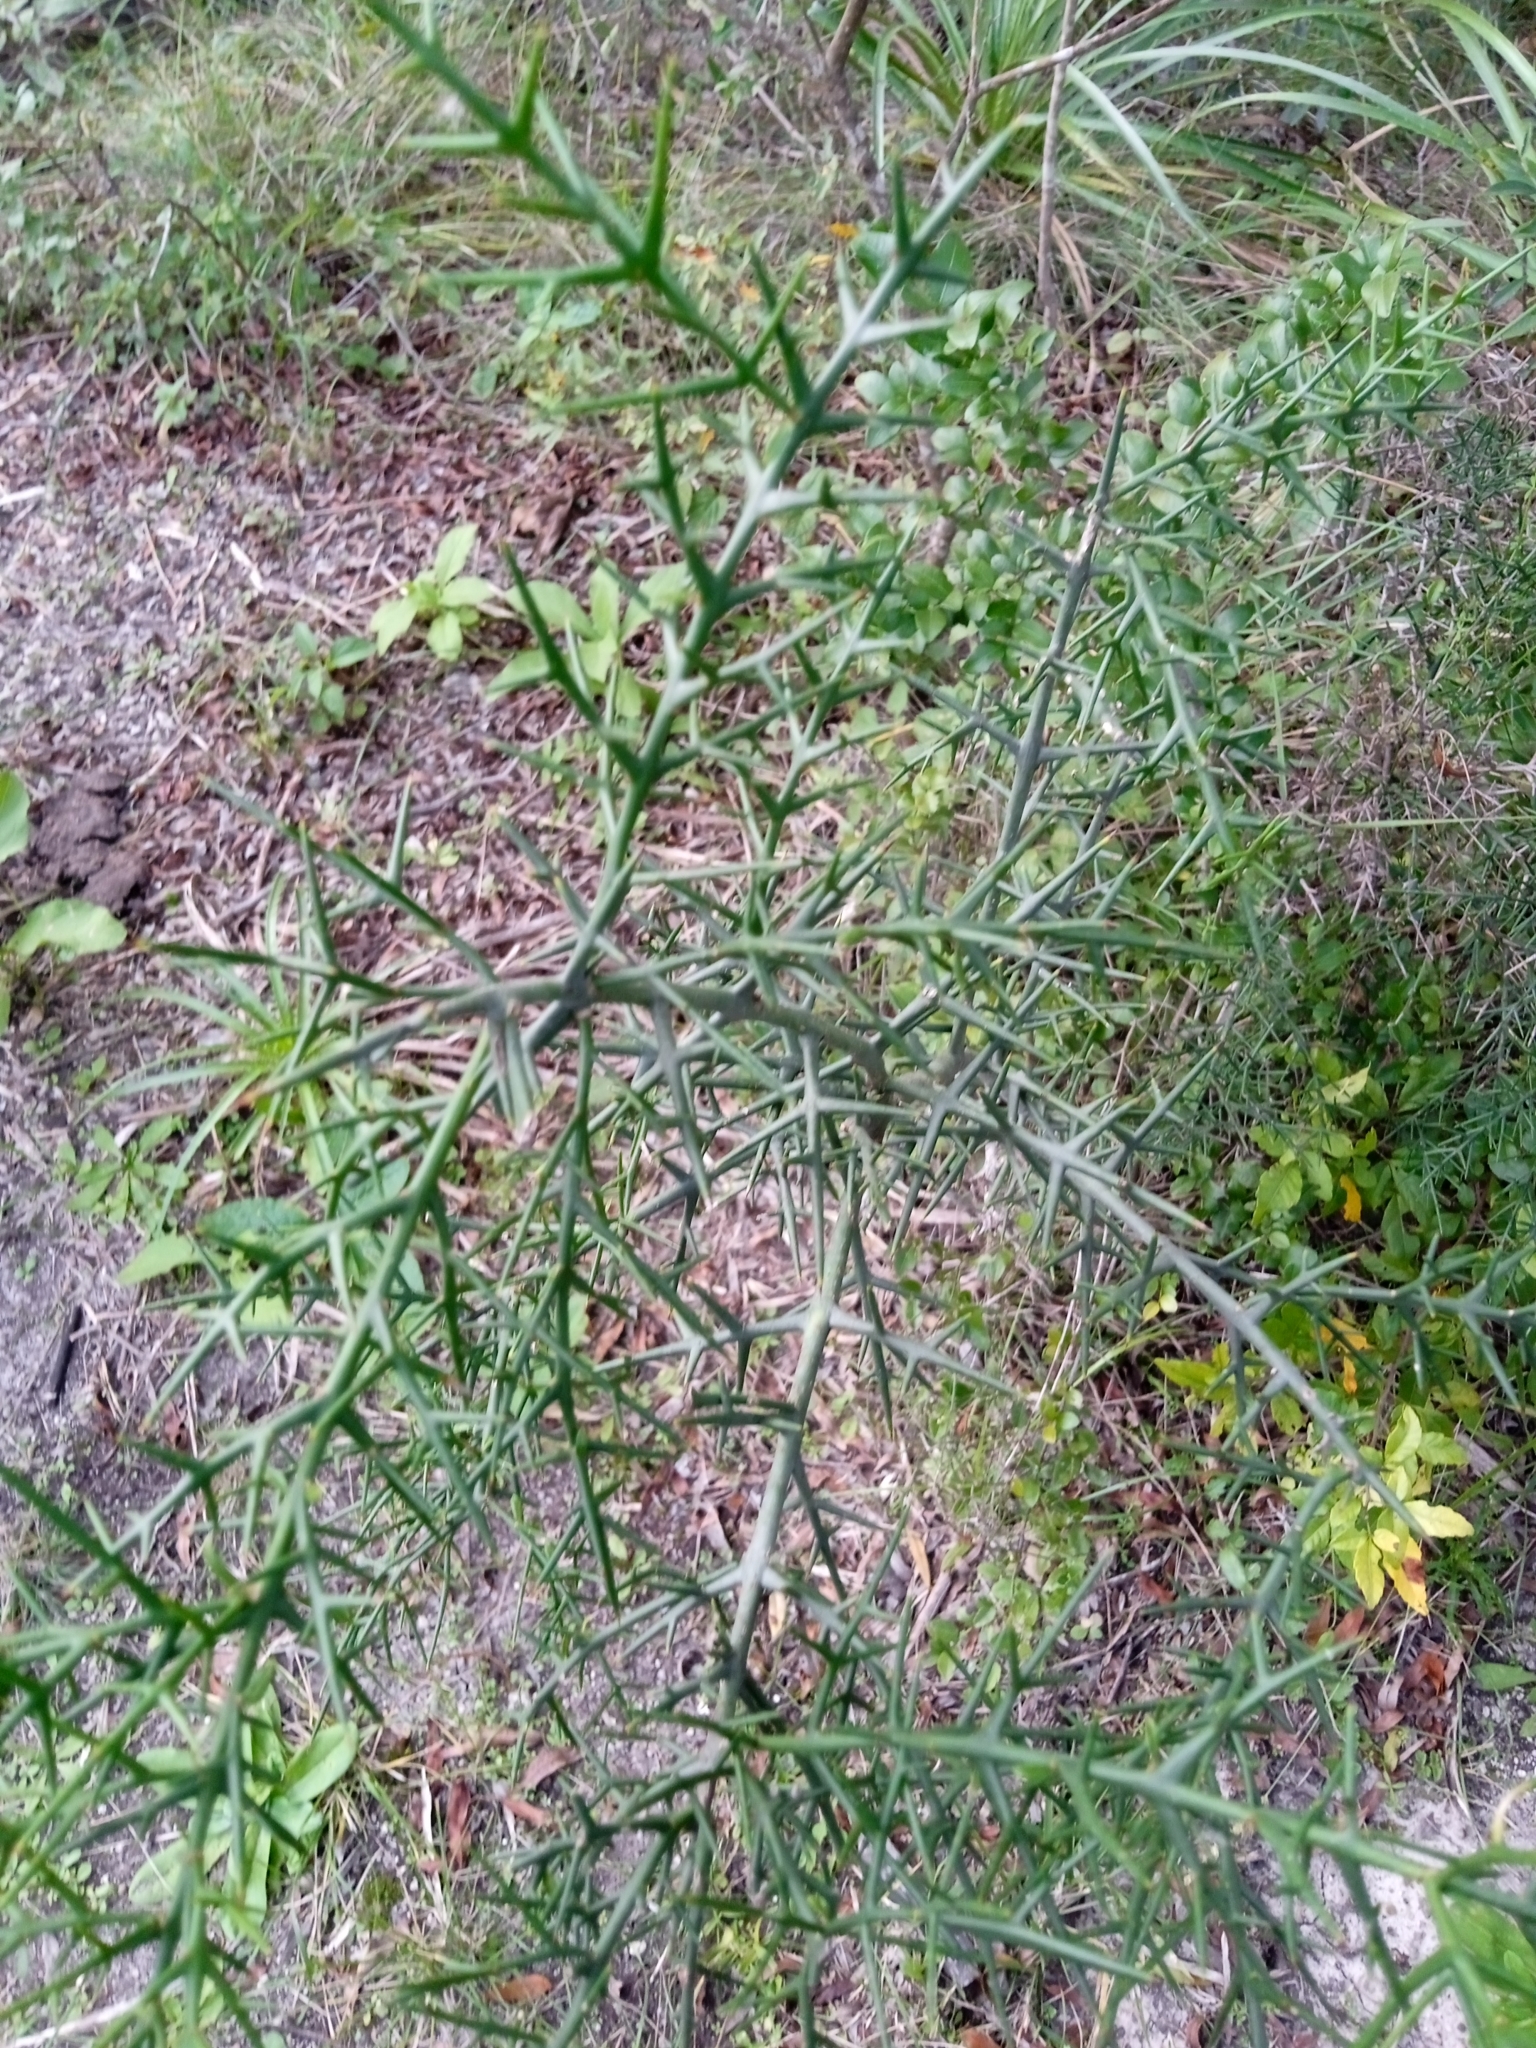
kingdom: Plantae
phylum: Tracheophyta
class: Magnoliopsida
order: Rosales
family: Rhamnaceae
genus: Colletia
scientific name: Colletia spinosissima
